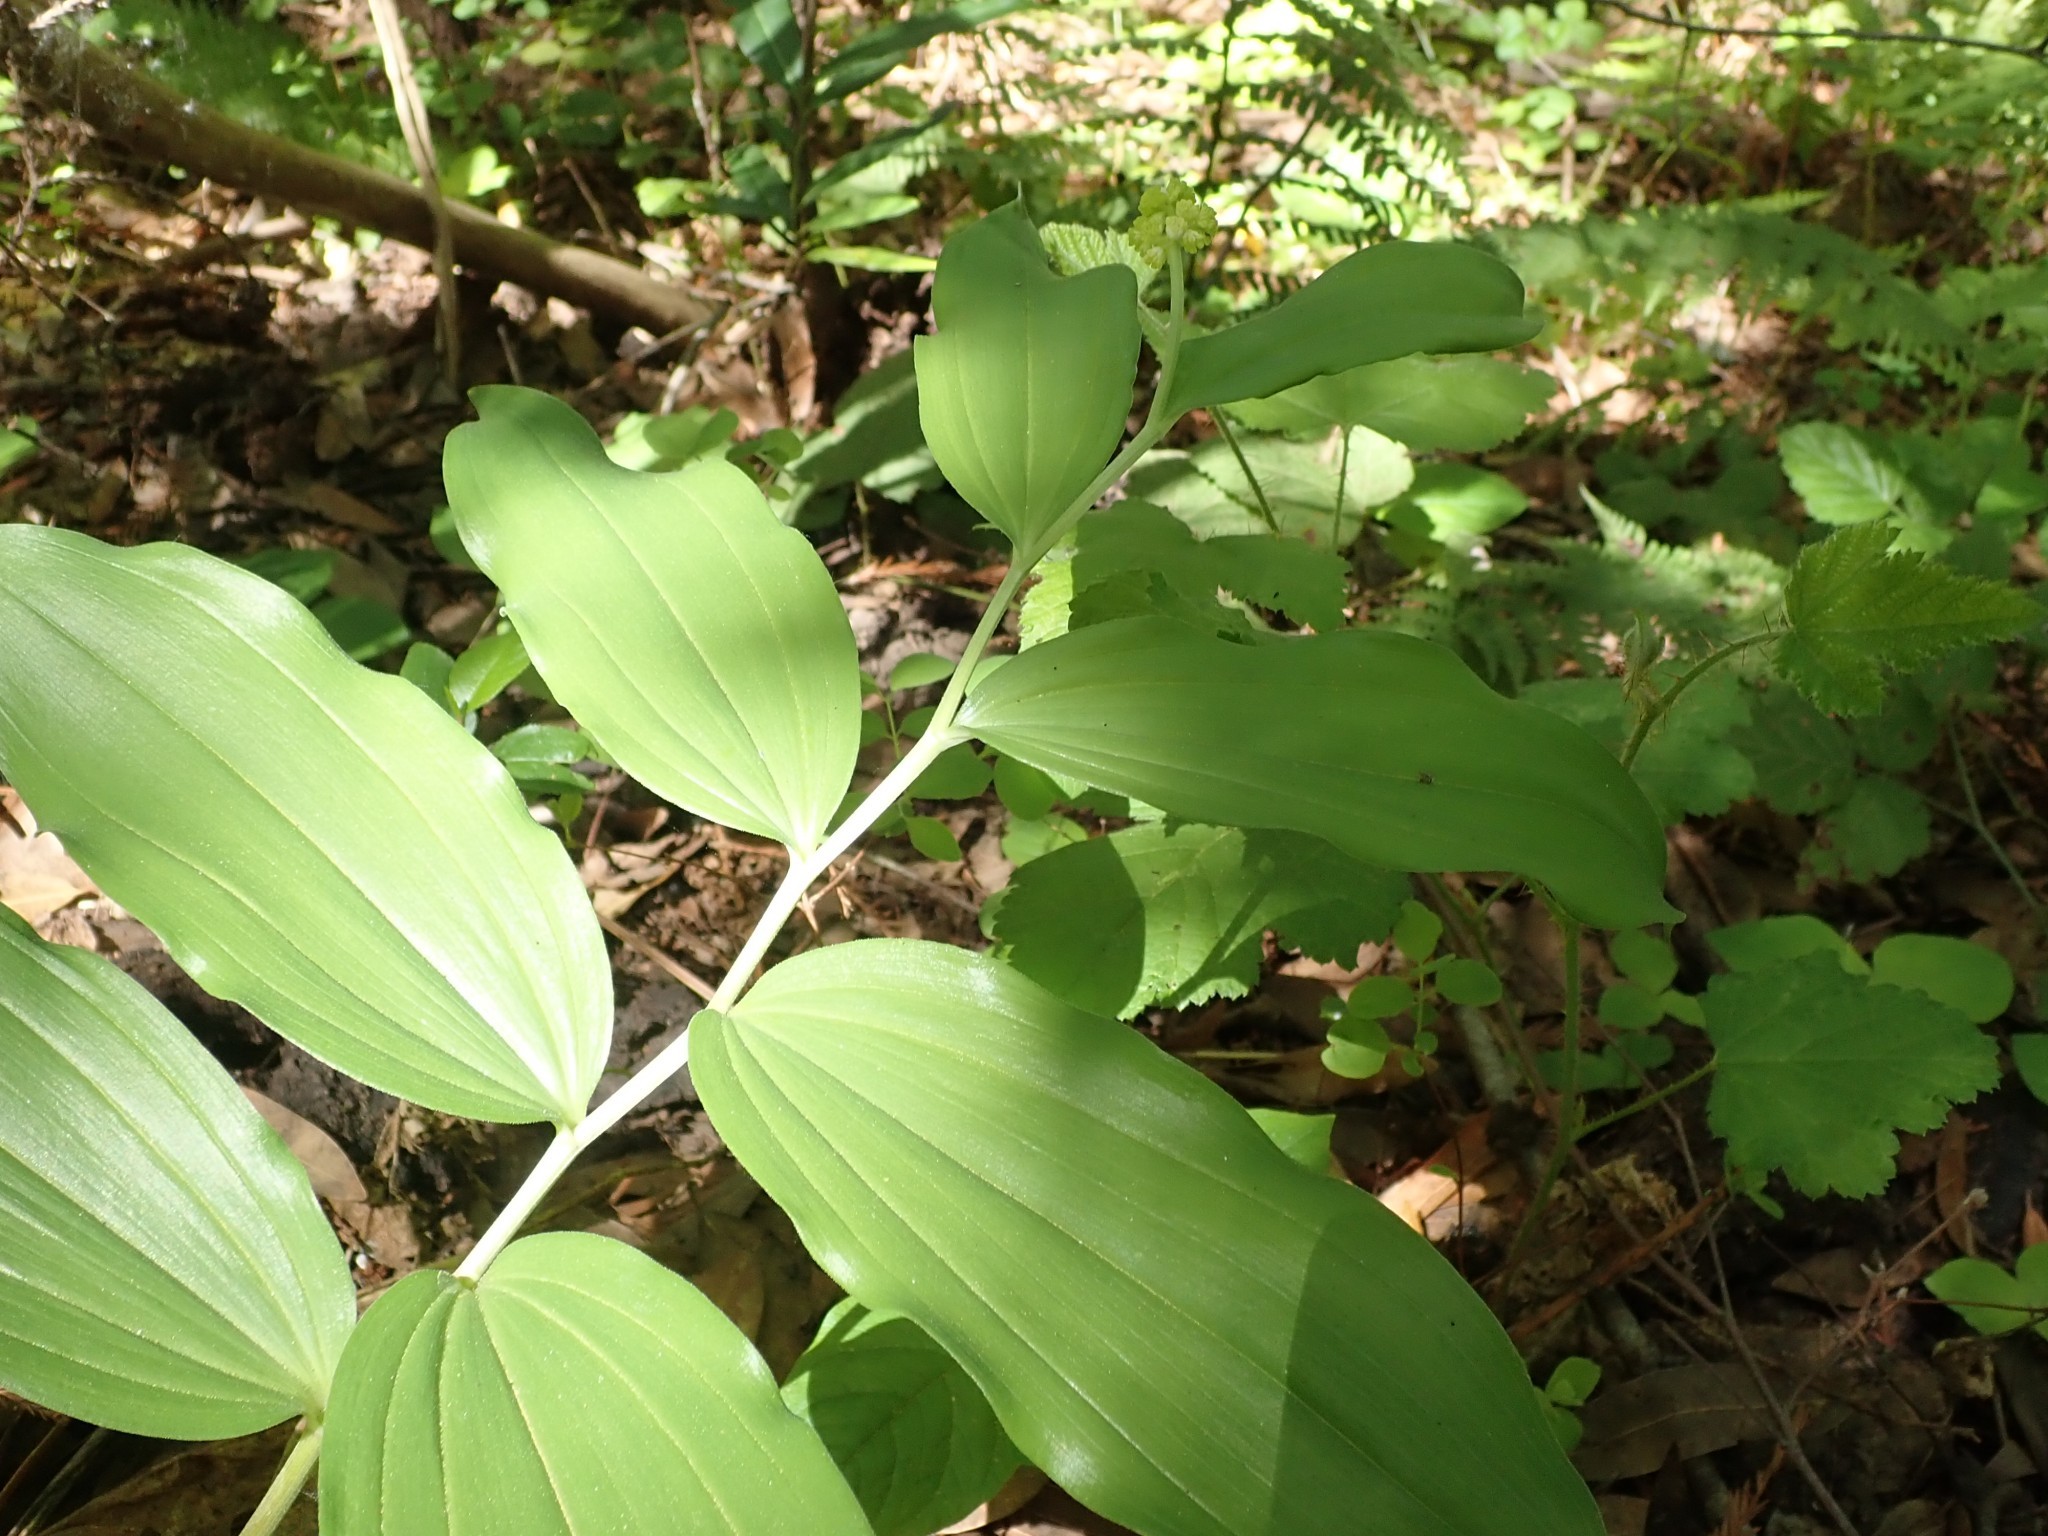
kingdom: Plantae
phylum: Tracheophyta
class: Liliopsida
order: Asparagales
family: Asparagaceae
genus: Maianthemum
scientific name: Maianthemum racemosum
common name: False spikenard
